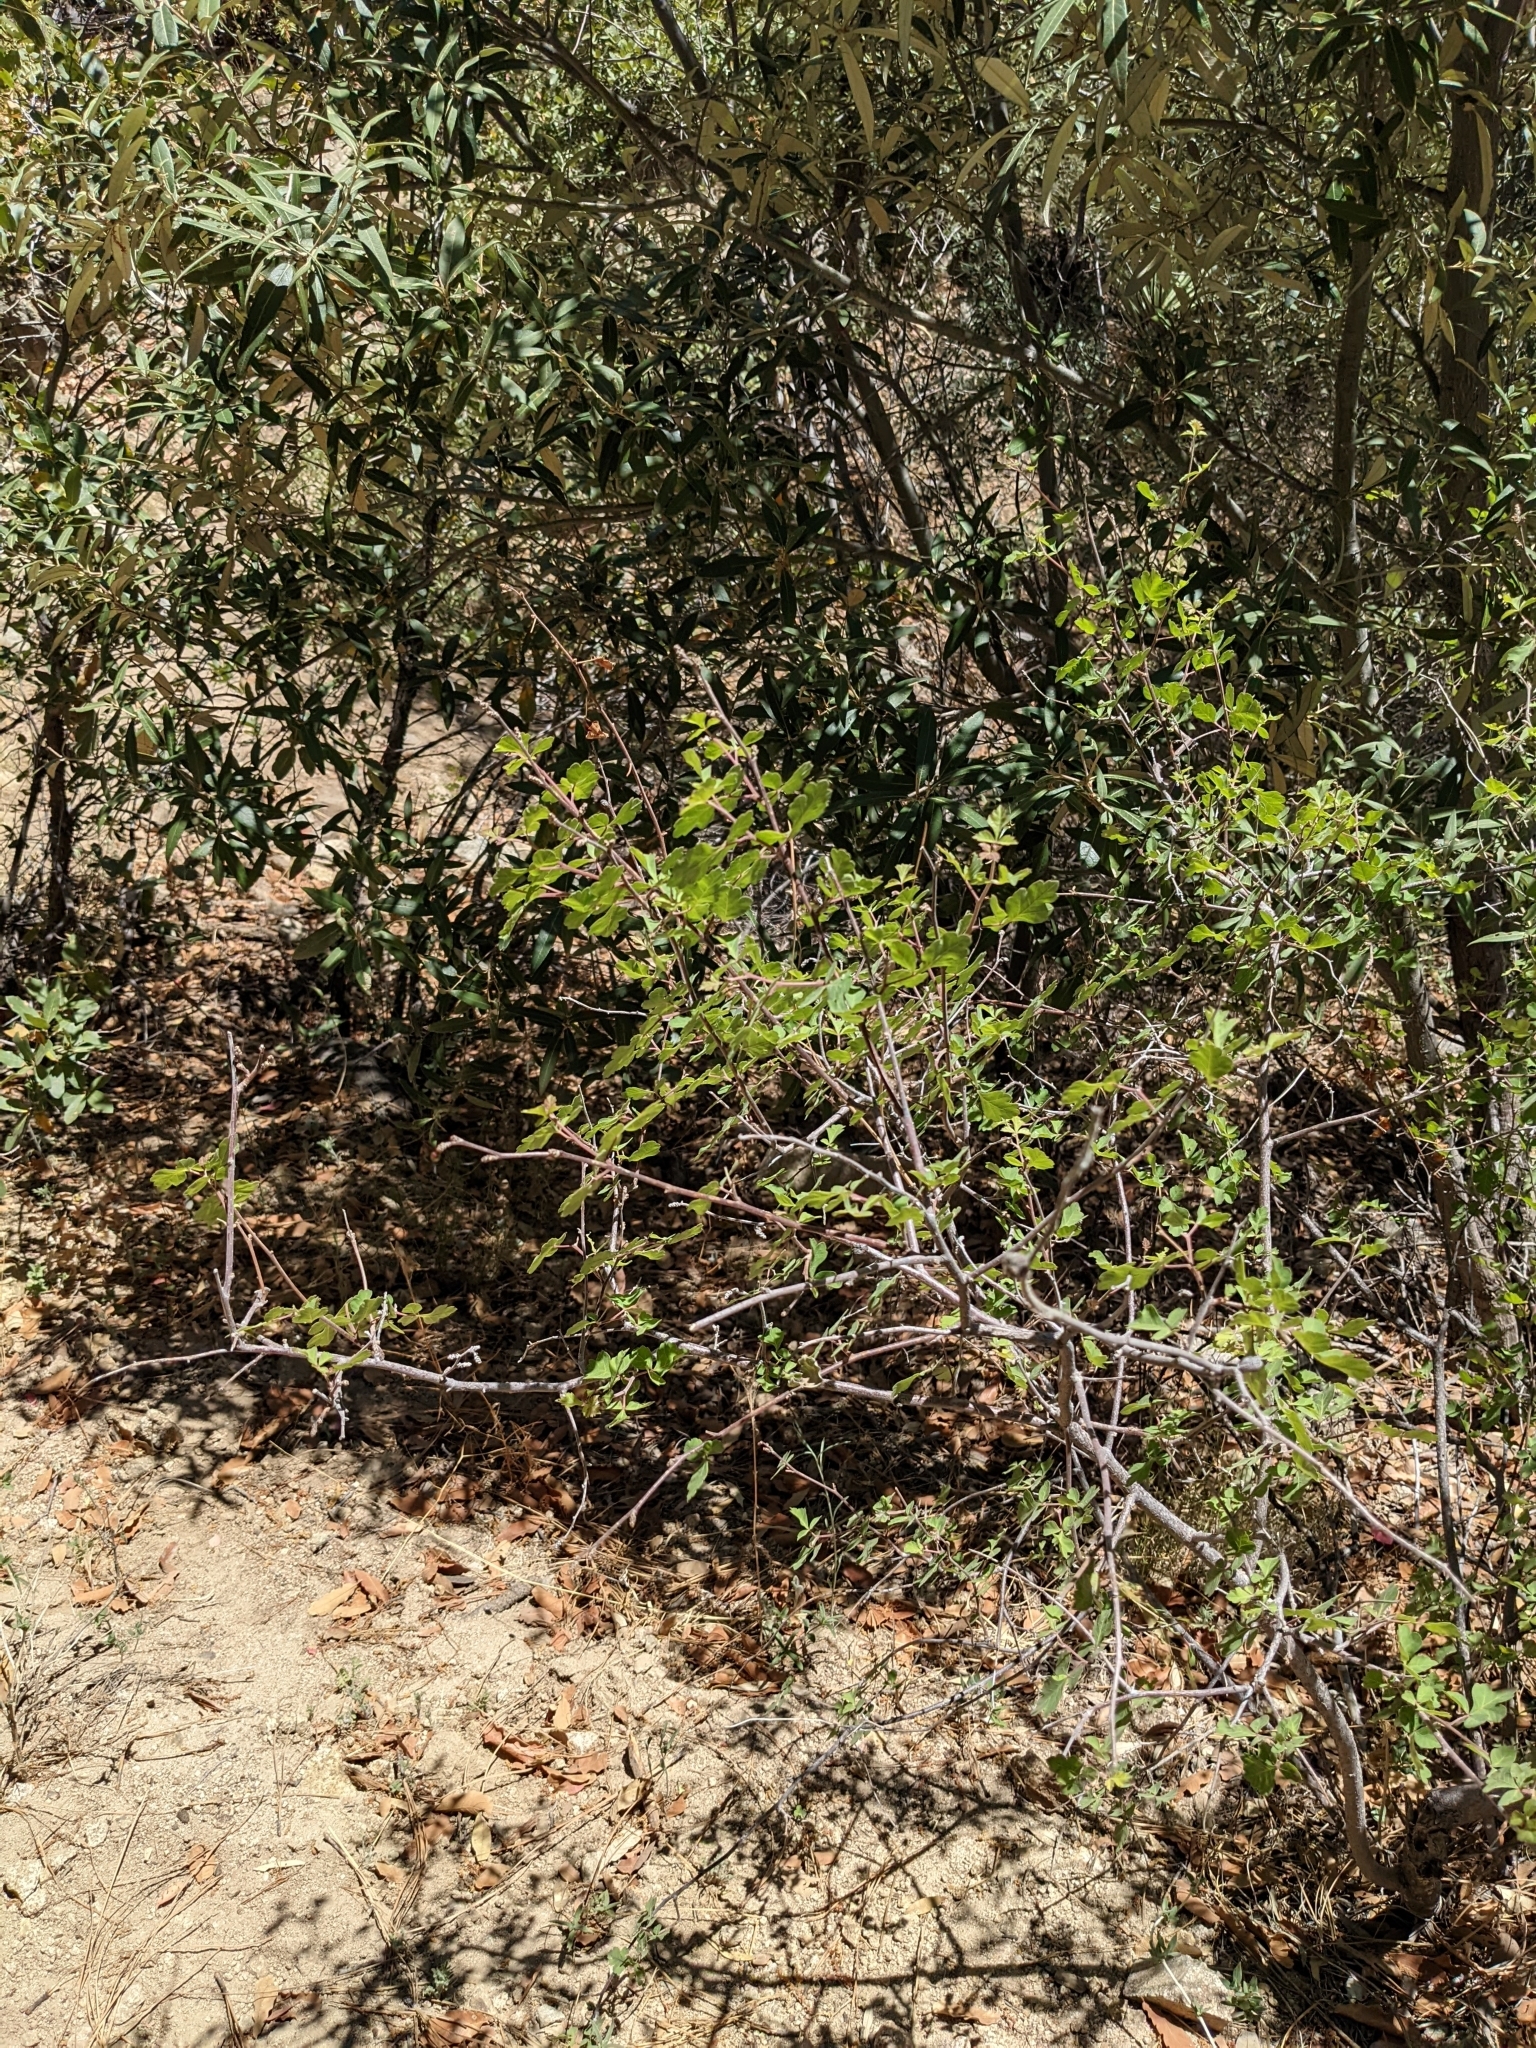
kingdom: Plantae
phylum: Tracheophyta
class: Magnoliopsida
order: Sapindales
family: Anacardiaceae
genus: Rhus
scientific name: Rhus aromatica
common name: Aromatic sumac
